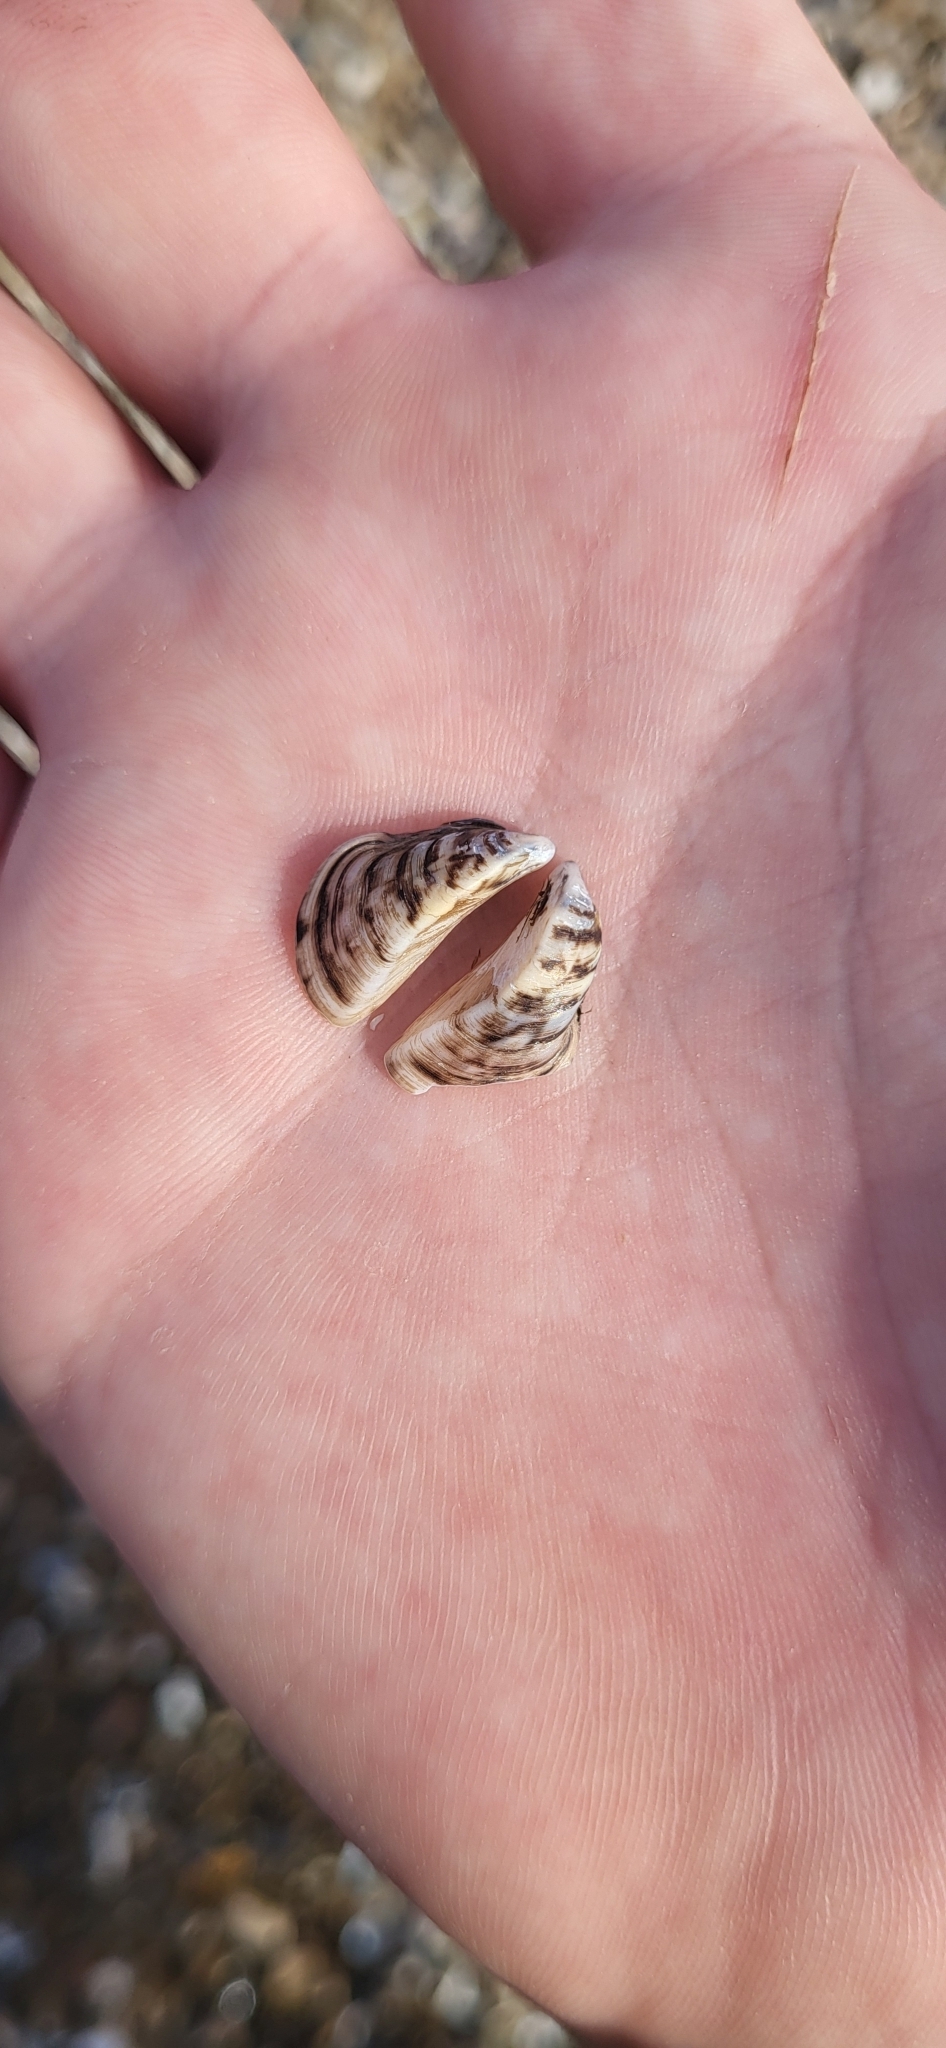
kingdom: Animalia
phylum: Mollusca
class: Bivalvia
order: Myida
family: Dreissenidae
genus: Dreissena
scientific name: Dreissena polymorpha
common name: Zebra mussel
